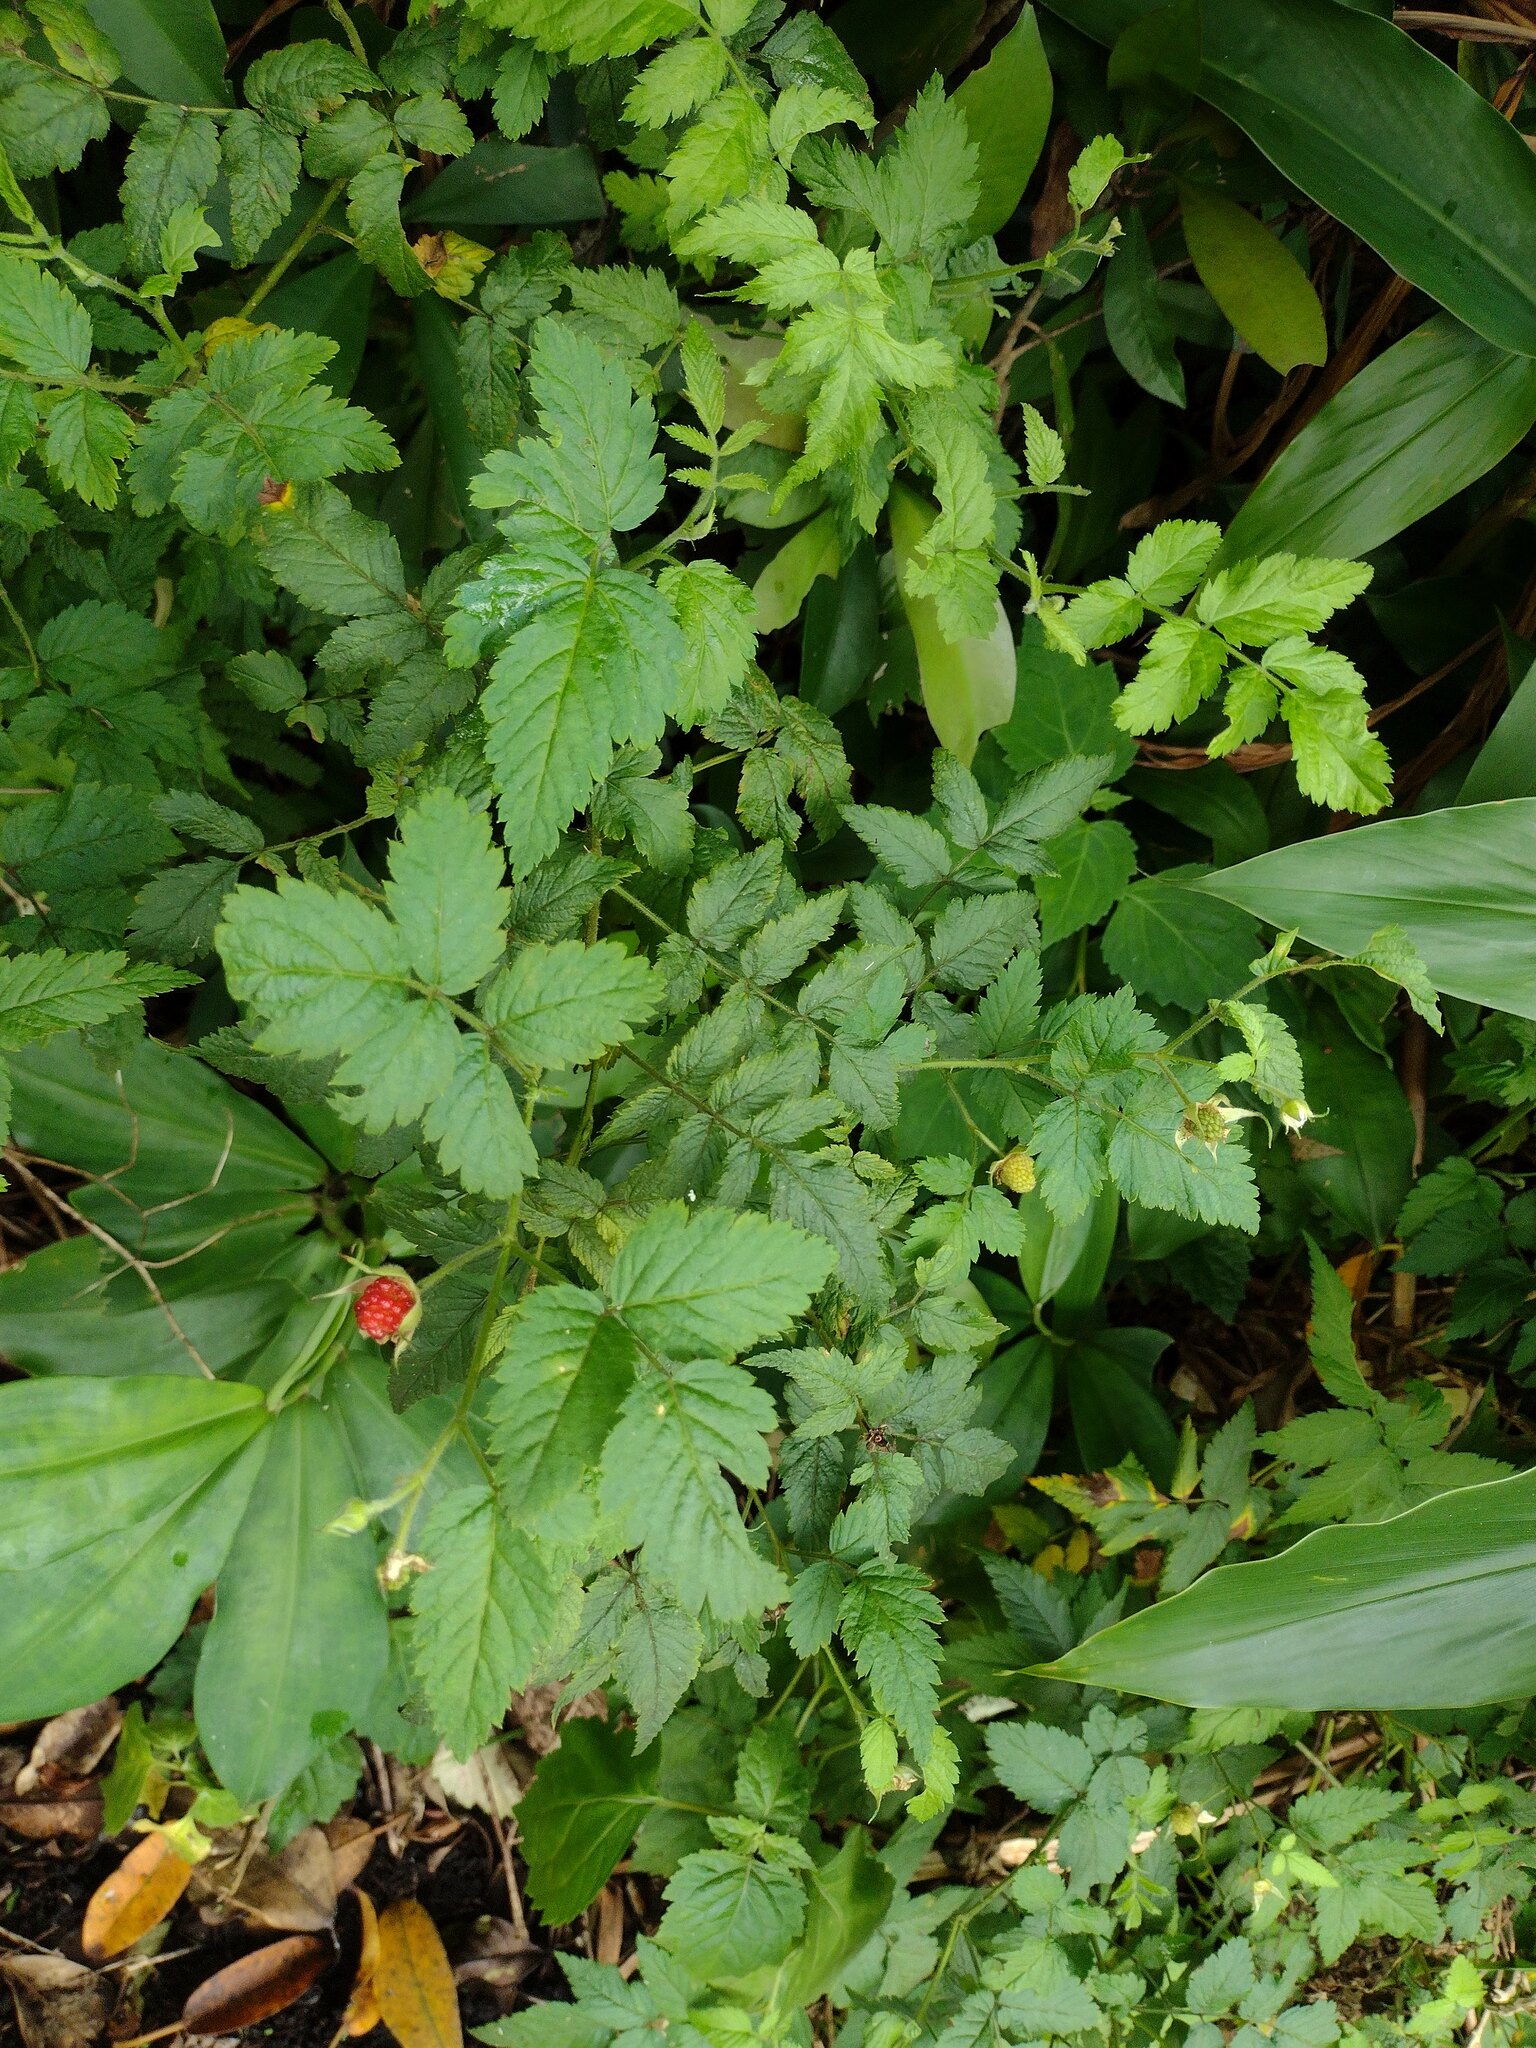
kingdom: Plantae
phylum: Tracheophyta
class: Magnoliopsida
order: Rosales
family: Rosaceae
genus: Rubus
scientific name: Rubus rosifolius
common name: Roseleaf raspberry
